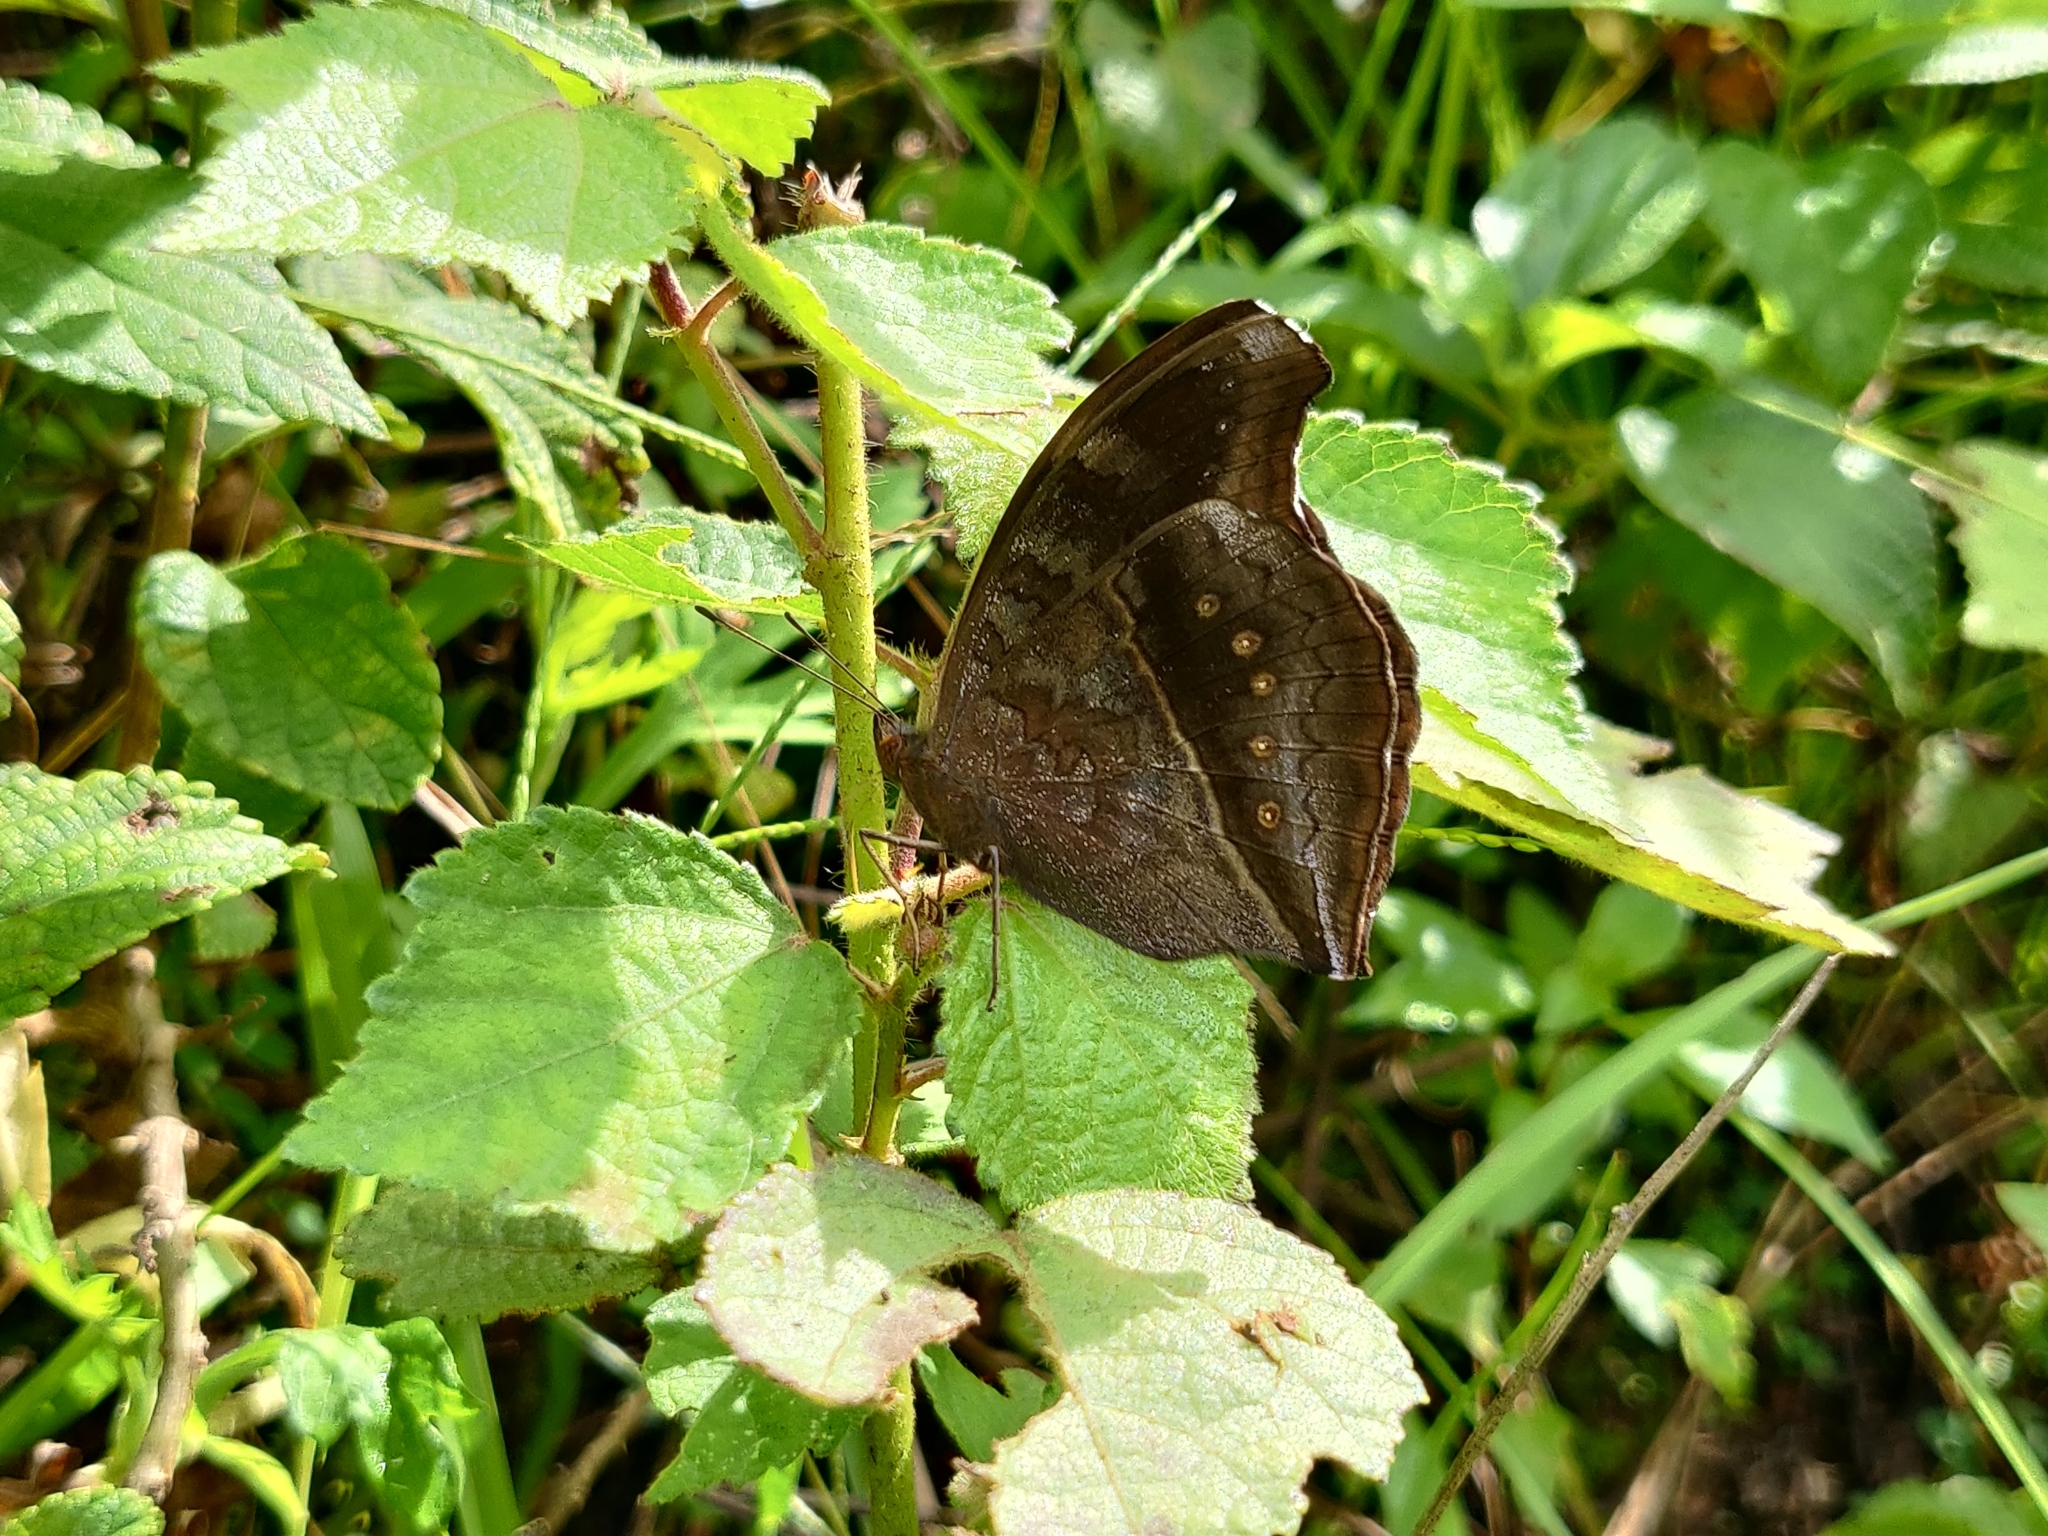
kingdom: Animalia
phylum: Arthropoda
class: Insecta
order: Lepidoptera
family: Nymphalidae
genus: Junonia
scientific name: Junonia iphita
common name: Chocolate pansy
